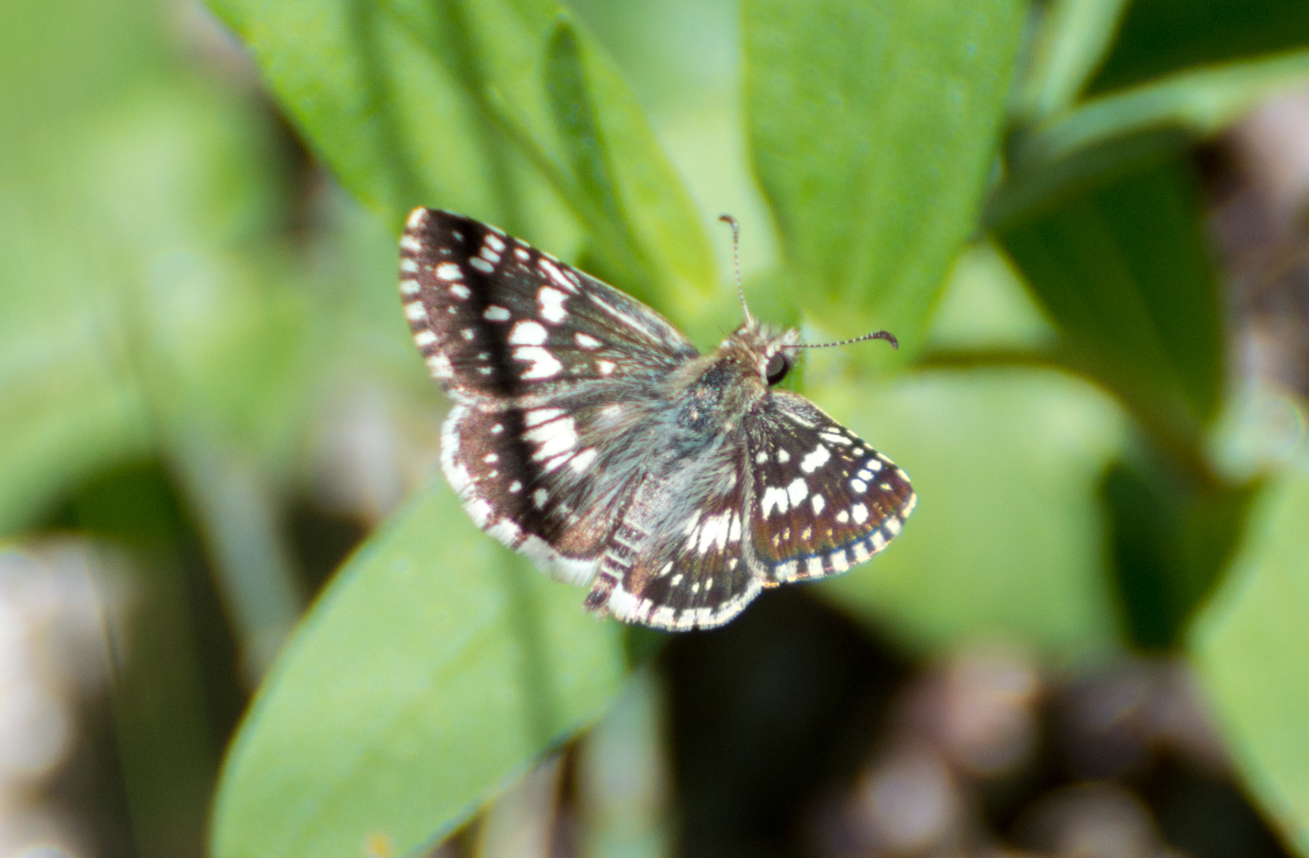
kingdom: Animalia
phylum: Arthropoda
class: Insecta
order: Lepidoptera
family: Hesperiidae
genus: Burnsius
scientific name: Burnsius orcynoides
